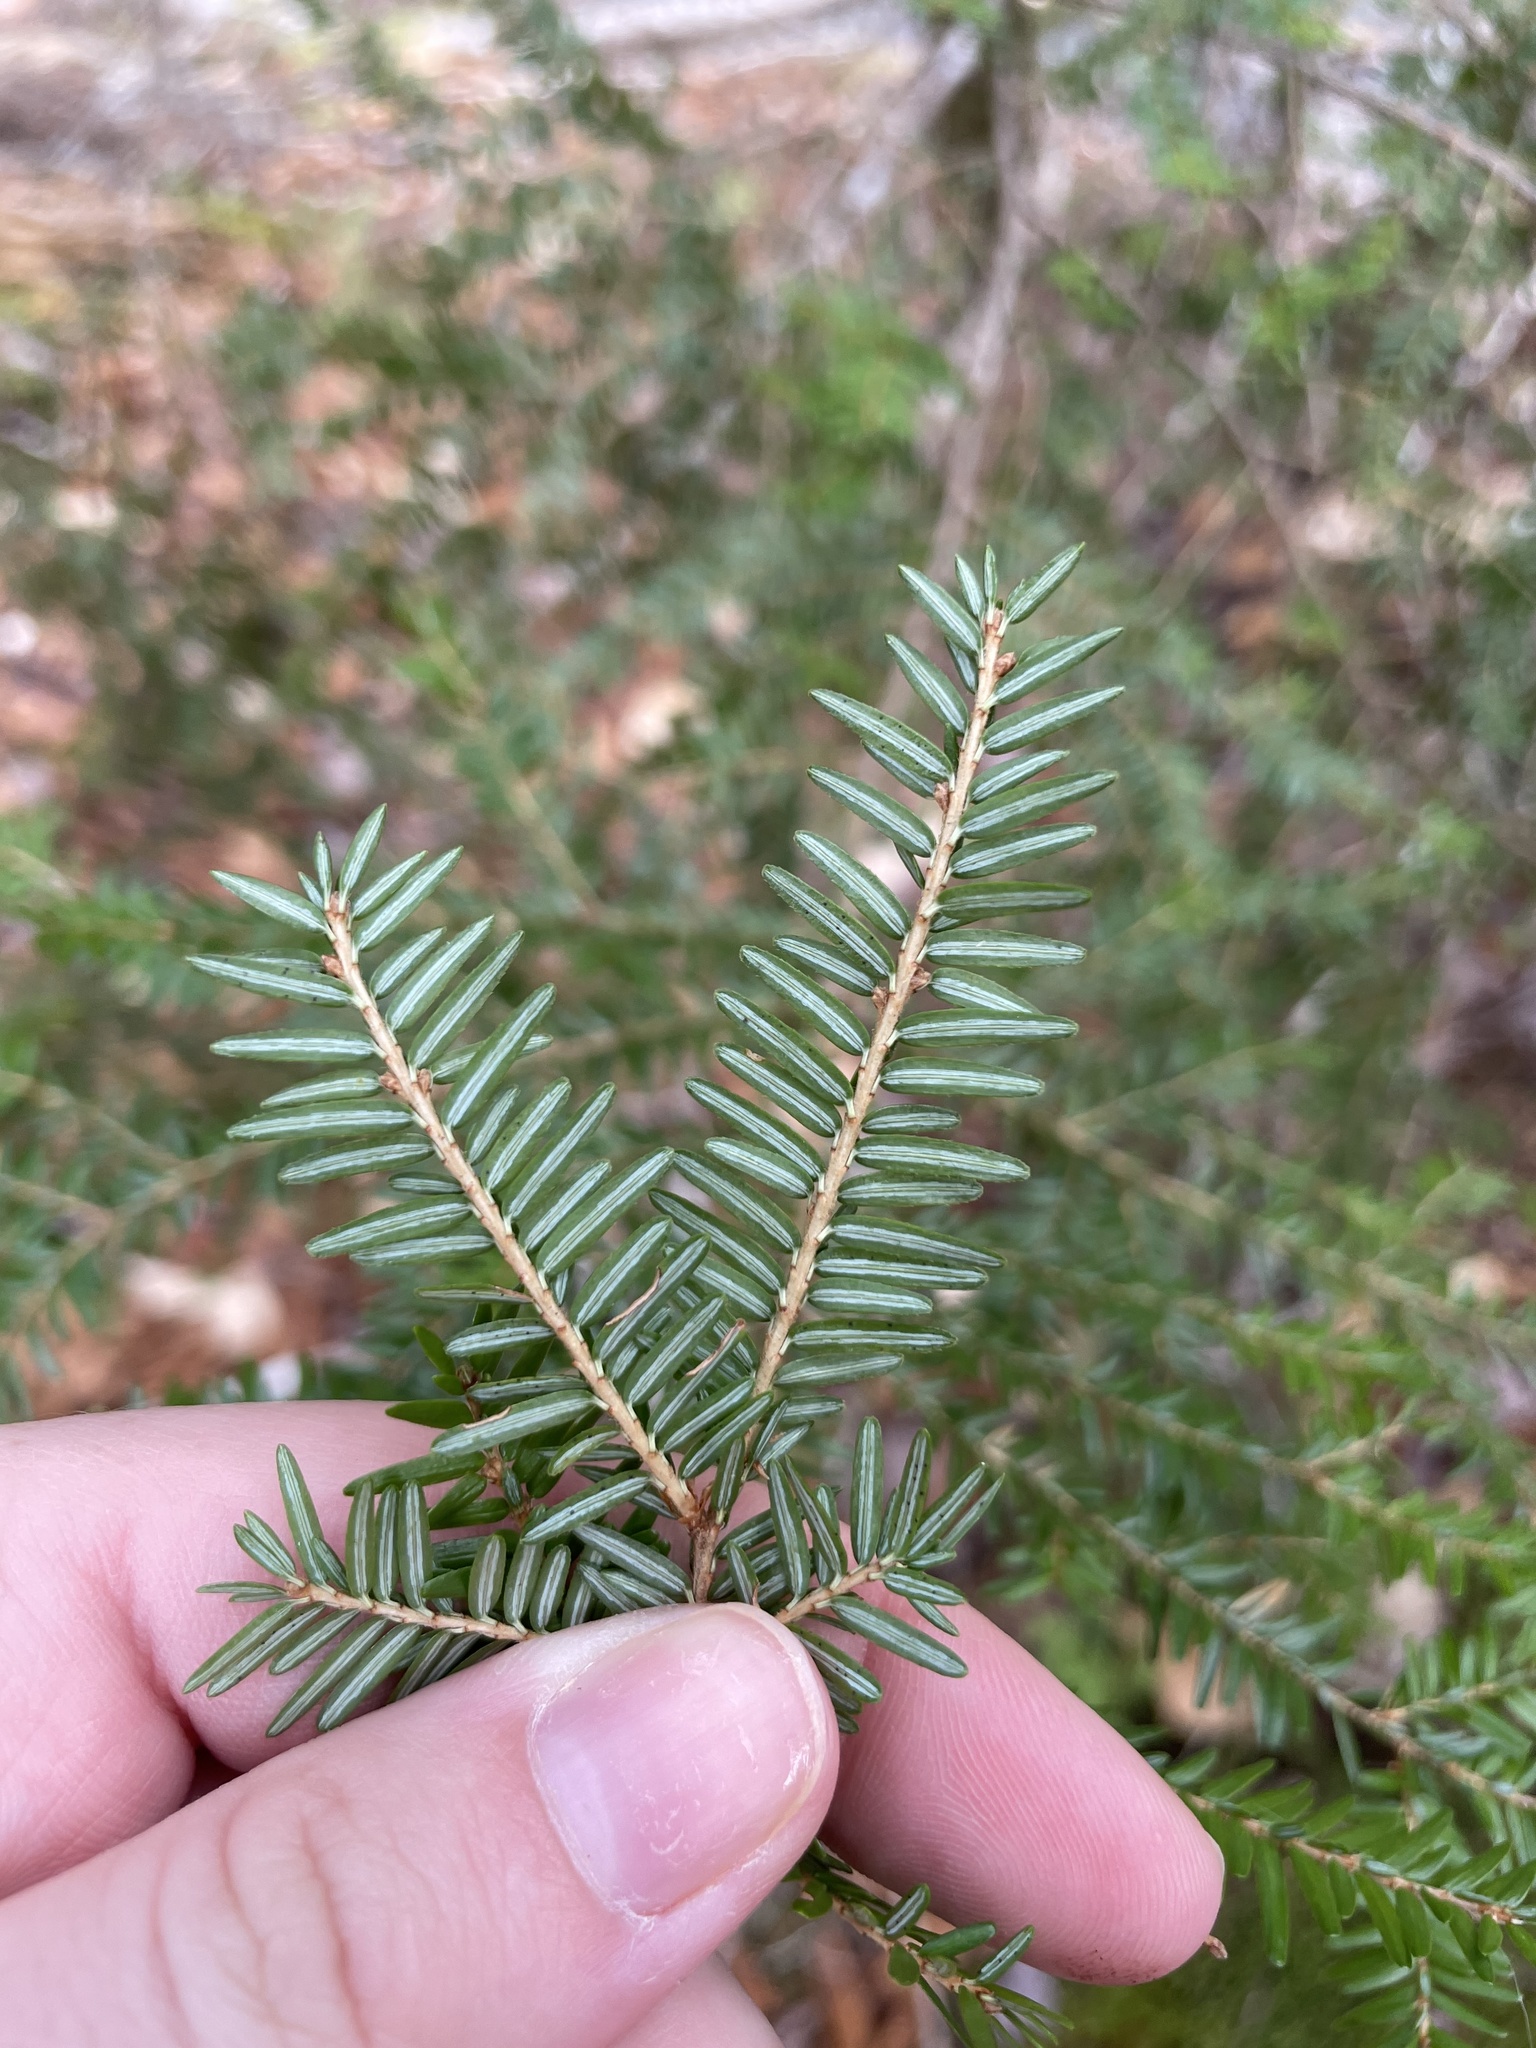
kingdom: Plantae
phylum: Tracheophyta
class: Pinopsida
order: Pinales
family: Pinaceae
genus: Tsuga
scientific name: Tsuga canadensis
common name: Eastern hemlock
